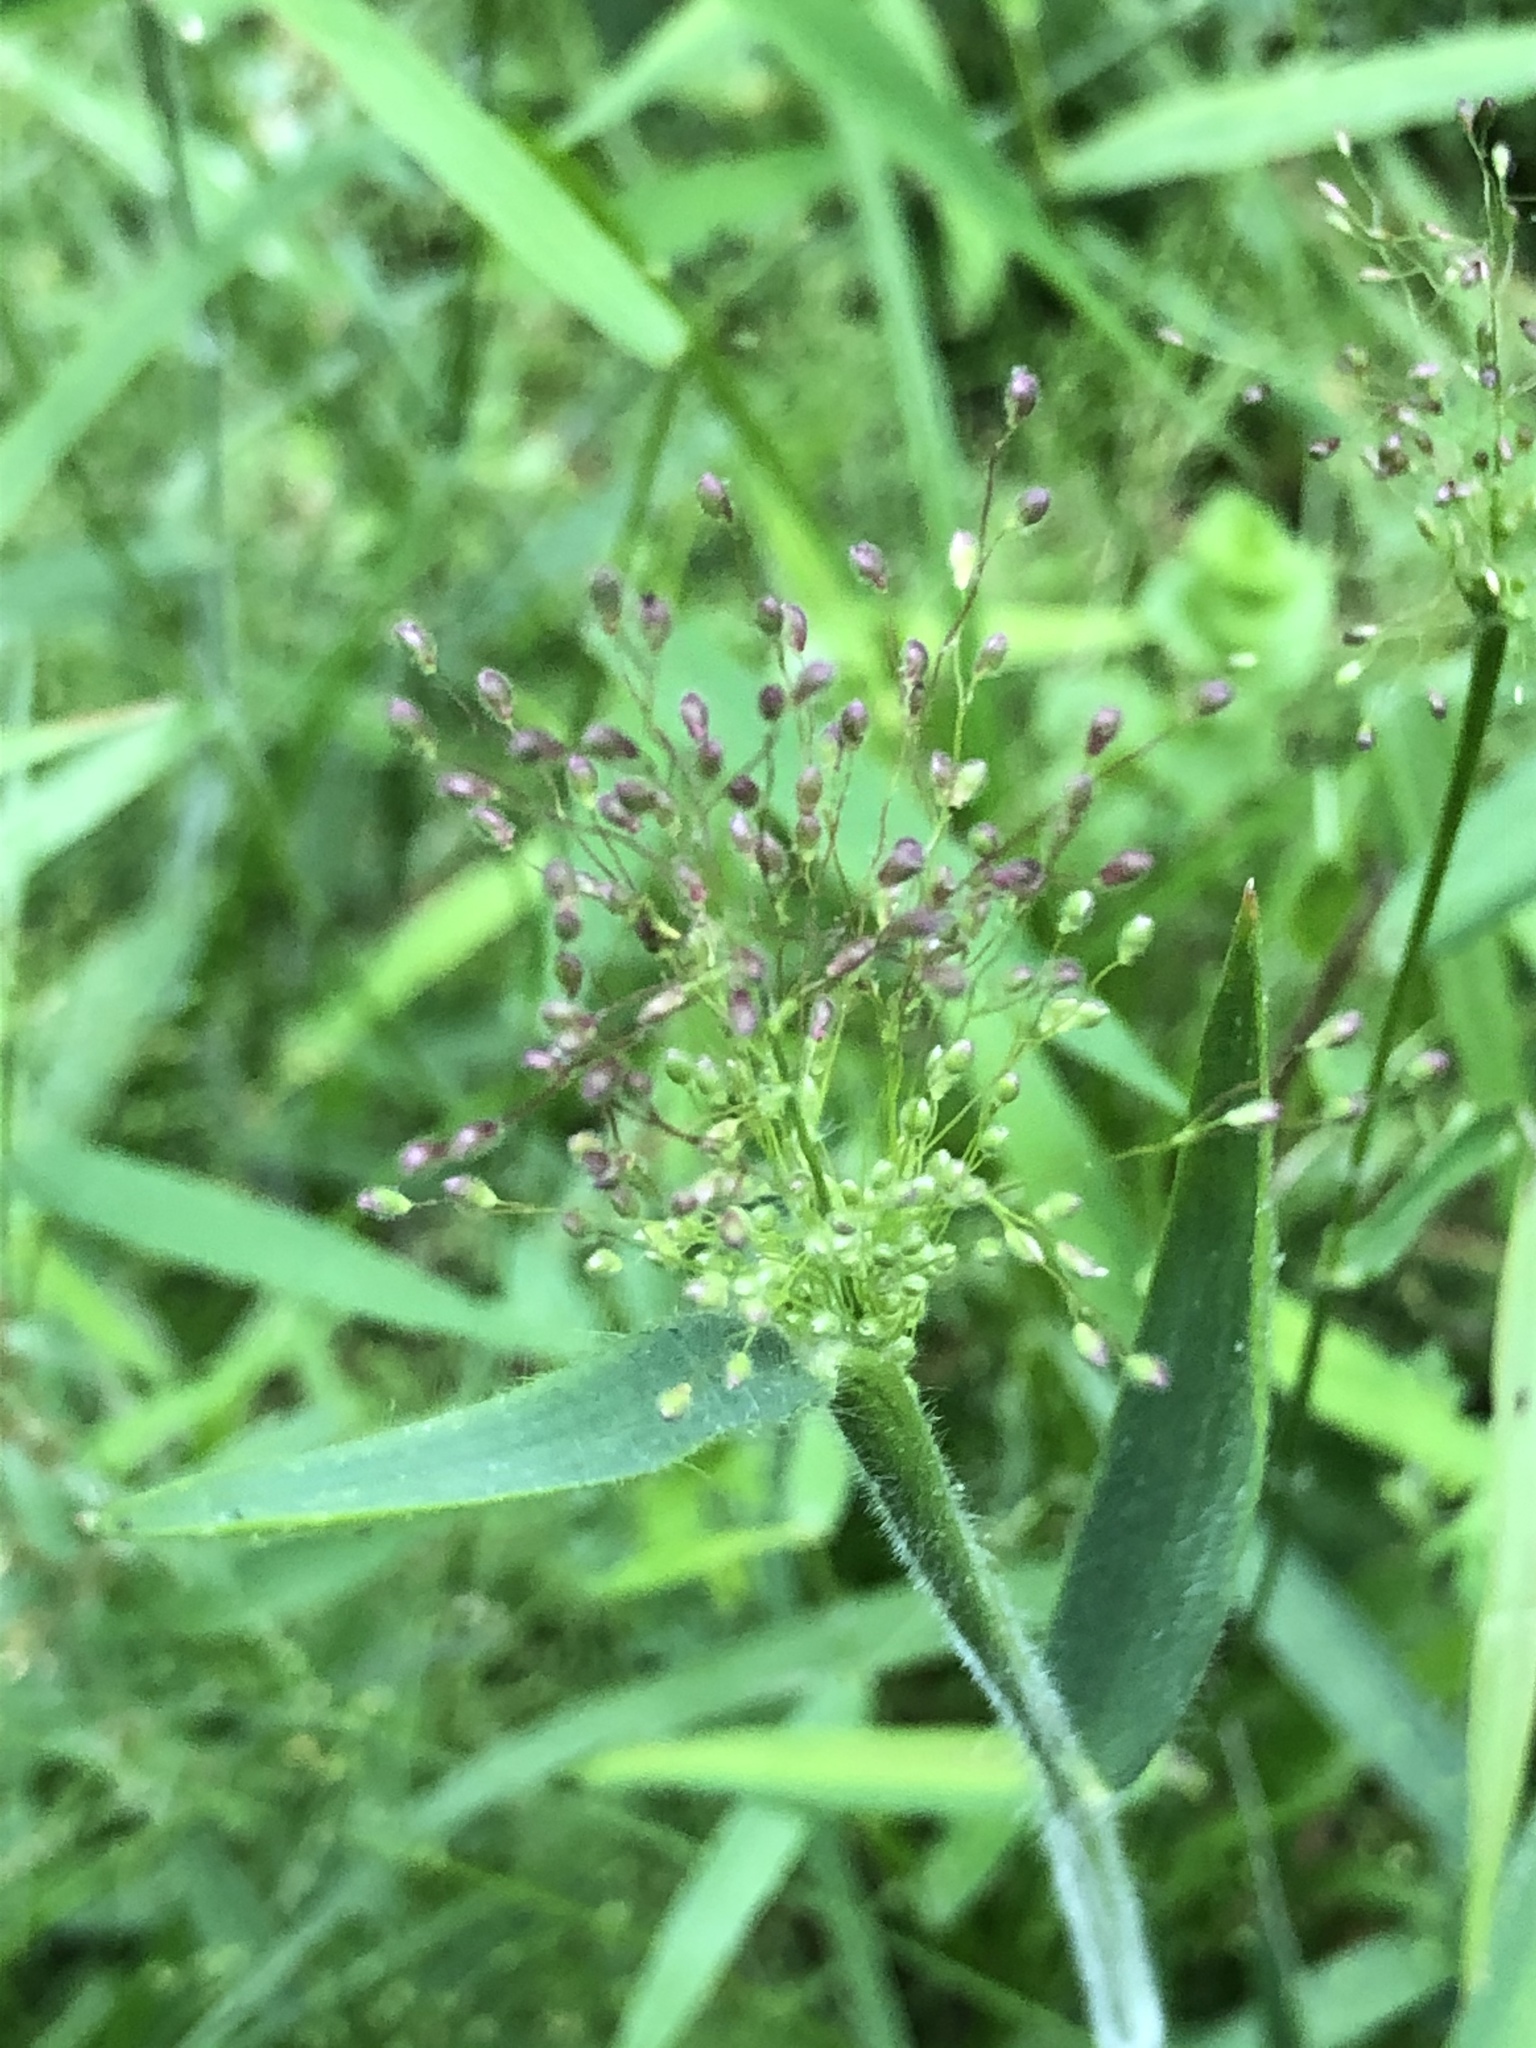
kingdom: Plantae
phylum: Tracheophyta
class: Liliopsida
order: Poales
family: Poaceae
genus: Dichanthelium
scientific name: Dichanthelium acuminatum
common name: Hairy panic grass
